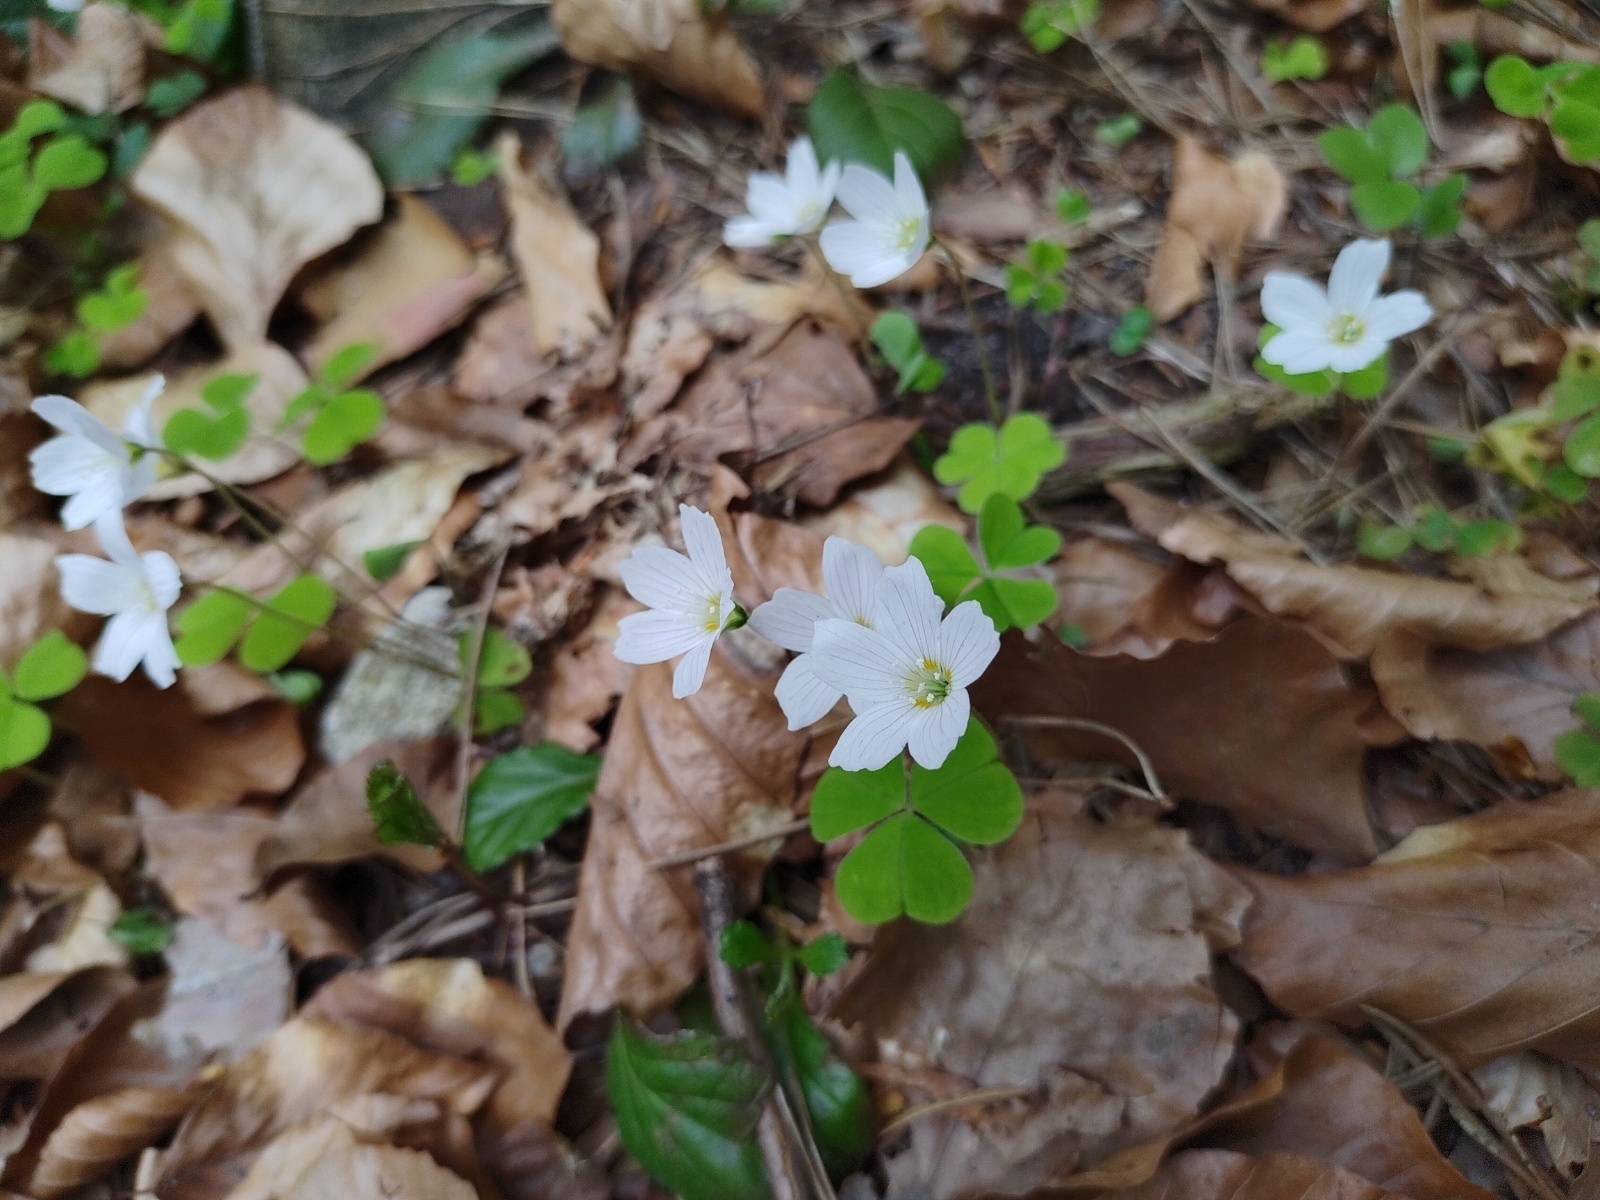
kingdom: Plantae
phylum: Tracheophyta
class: Magnoliopsida
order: Oxalidales
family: Oxalidaceae
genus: Oxalis
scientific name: Oxalis acetosella
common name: Wood-sorrel
